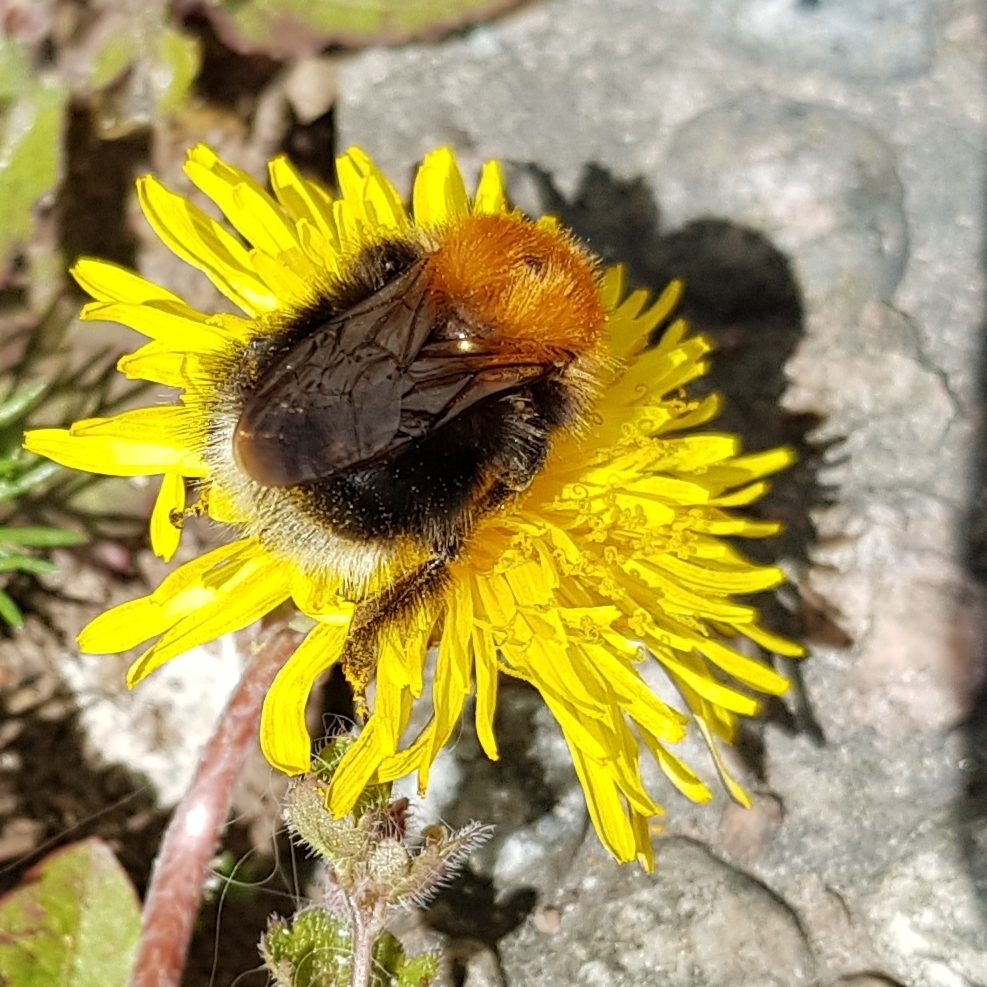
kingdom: Animalia
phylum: Arthropoda
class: Insecta
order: Hymenoptera
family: Apidae
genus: Bombus
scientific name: Bombus hypnorum
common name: New garden bumblebee
